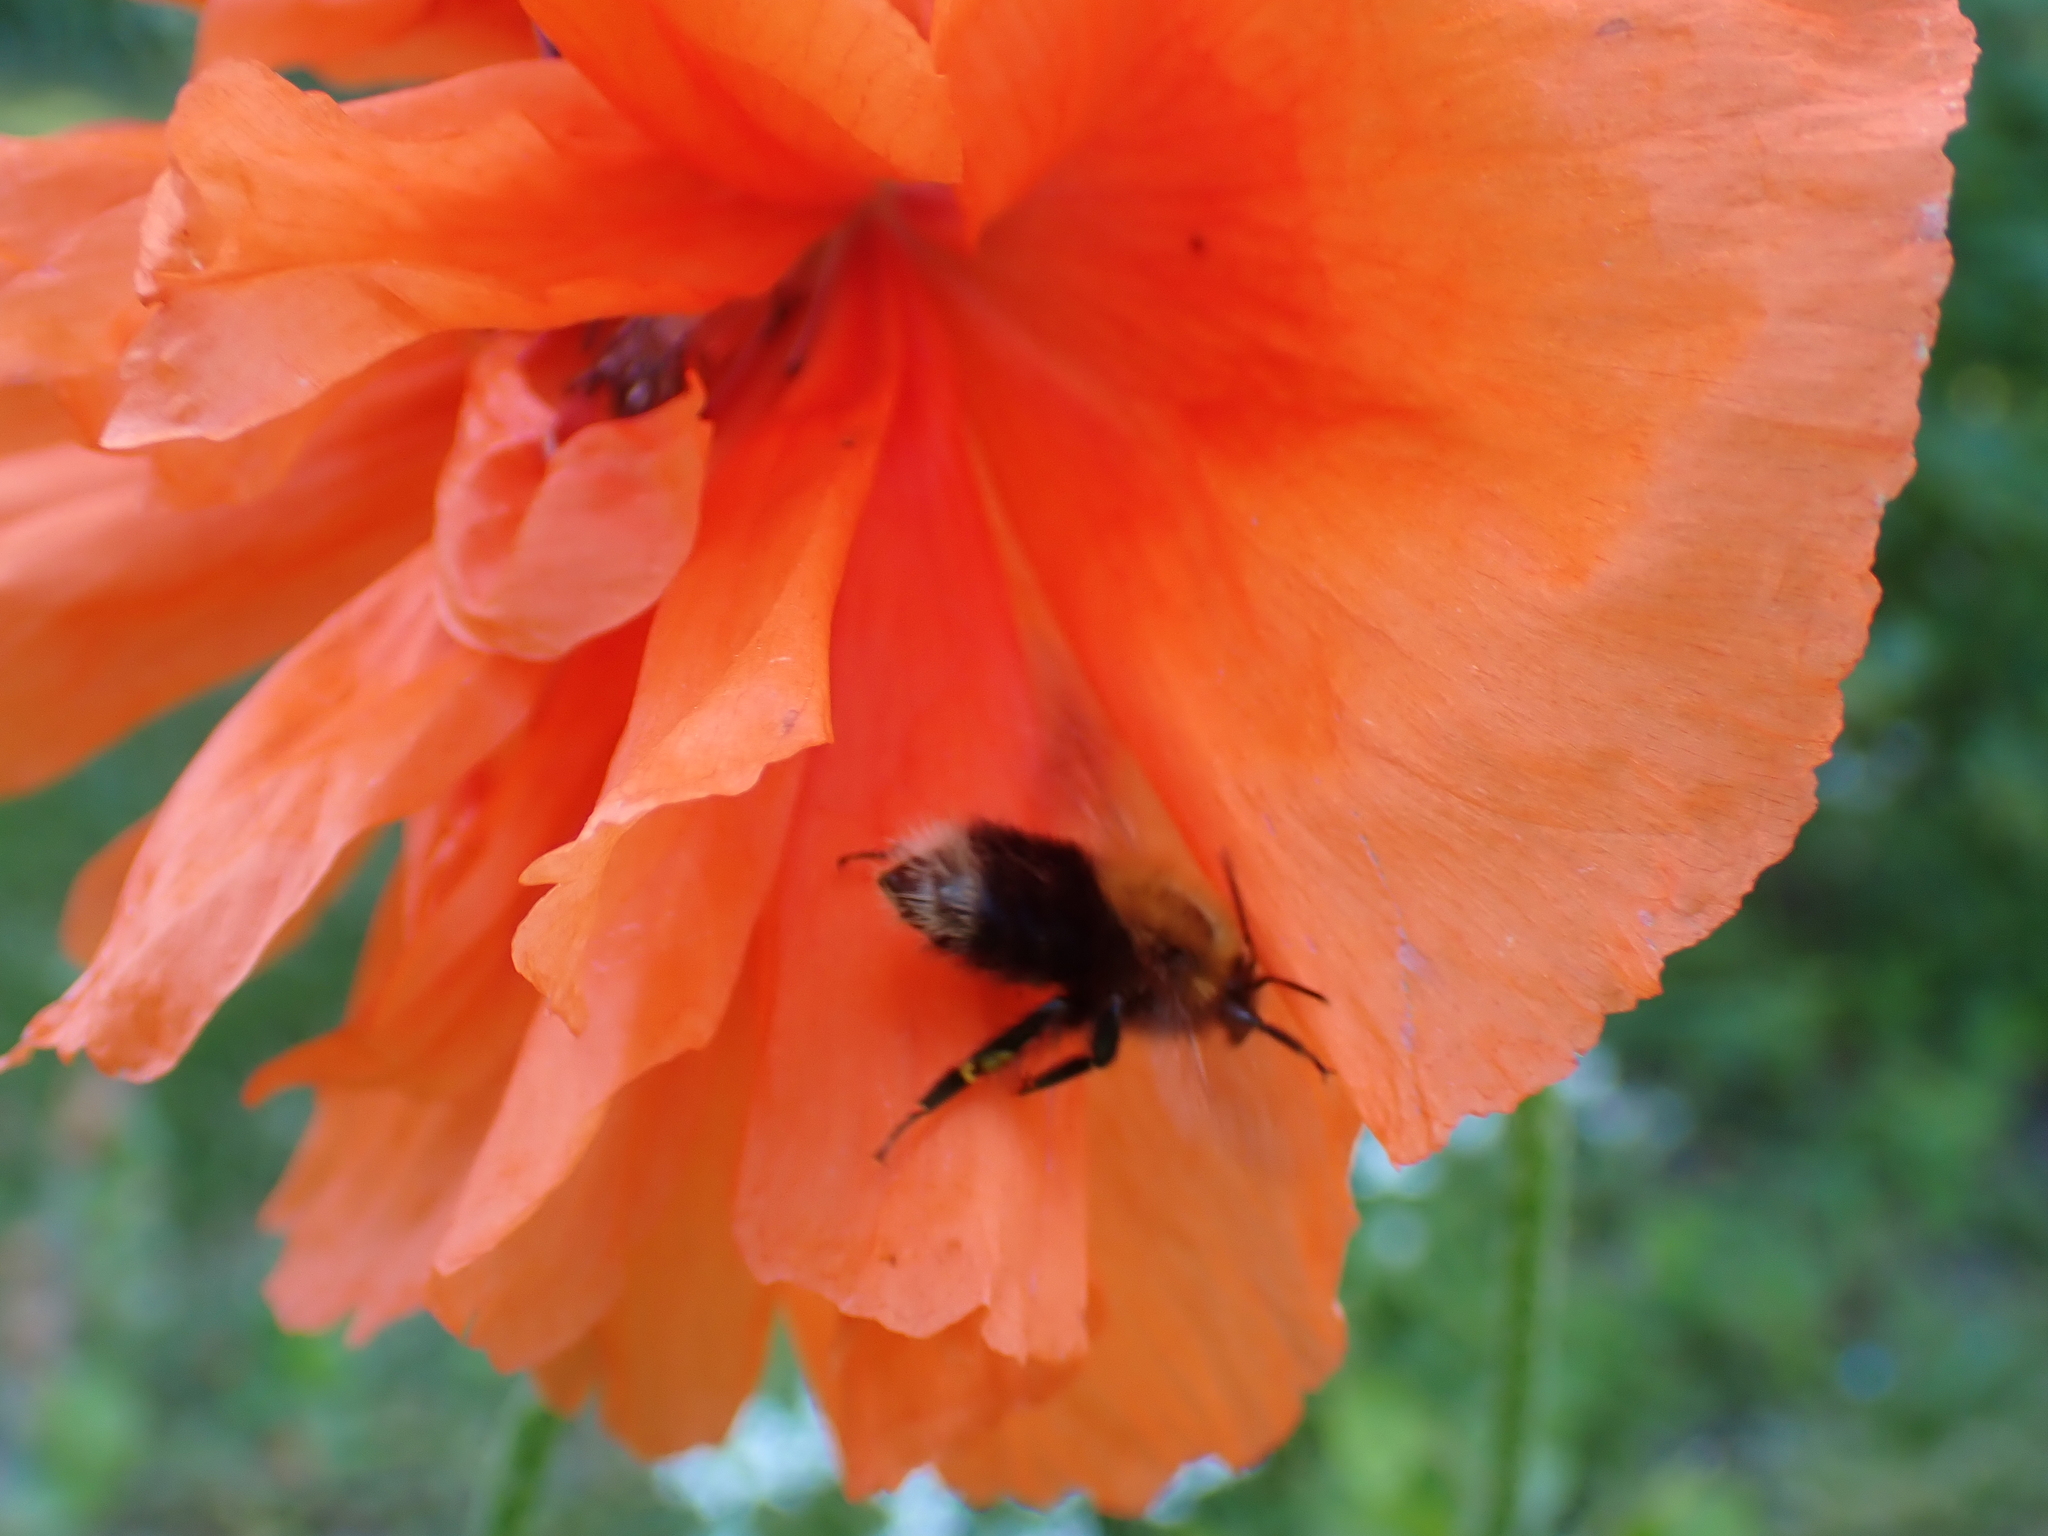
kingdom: Animalia
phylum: Arthropoda
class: Insecta
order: Hymenoptera
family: Apidae
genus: Bombus
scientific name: Bombus hypnorum
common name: New garden bumblebee
